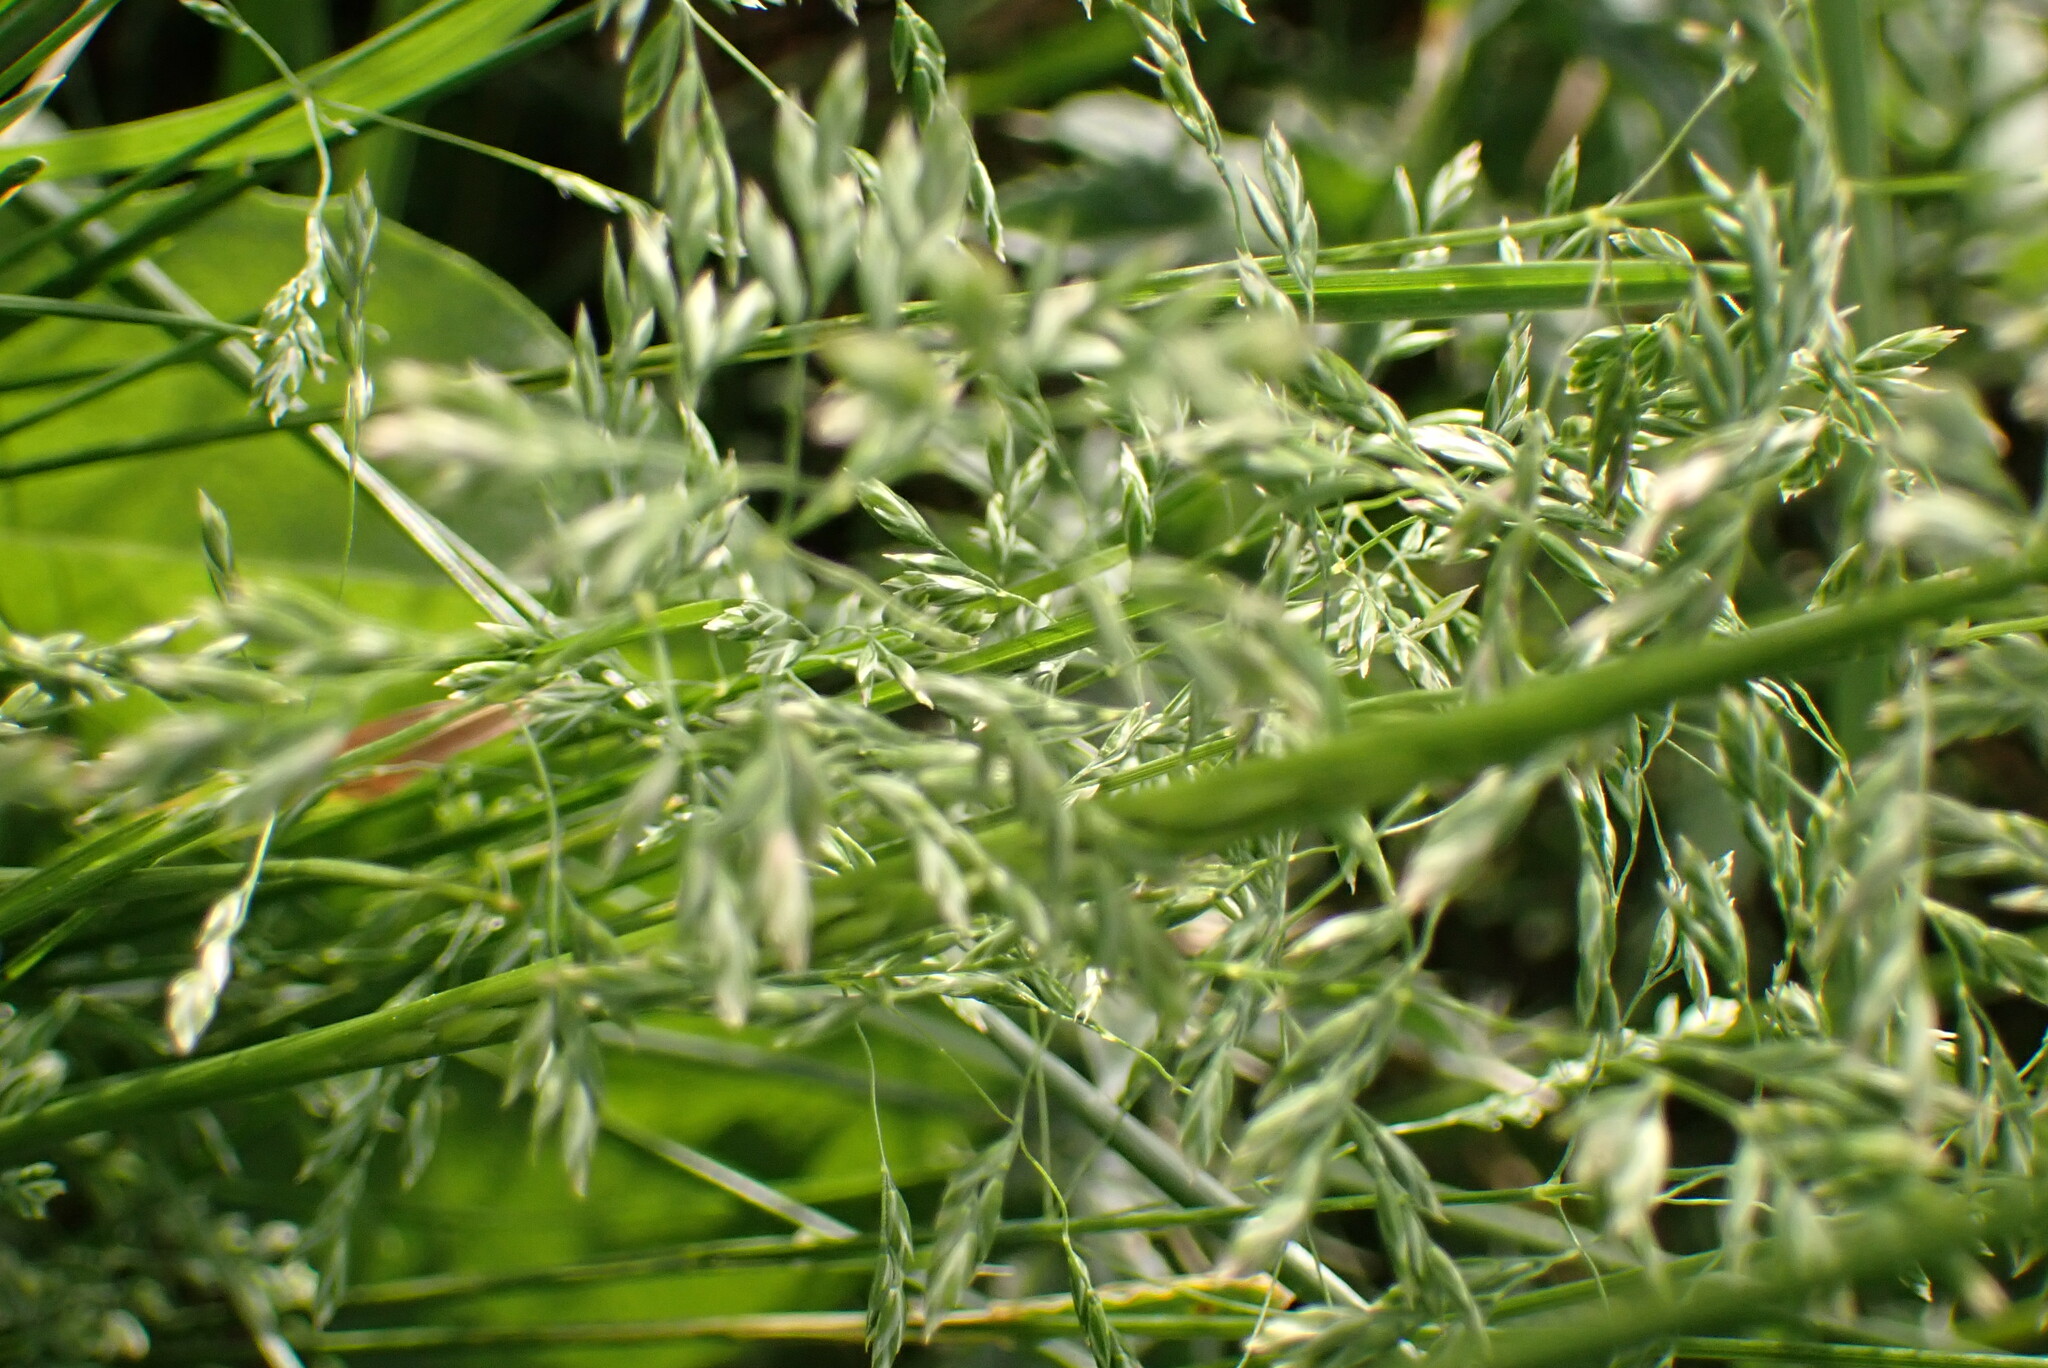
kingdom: Plantae
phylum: Tracheophyta
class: Liliopsida
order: Poales
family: Poaceae
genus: Dactylis
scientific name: Dactylis glomerata
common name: Orchardgrass
